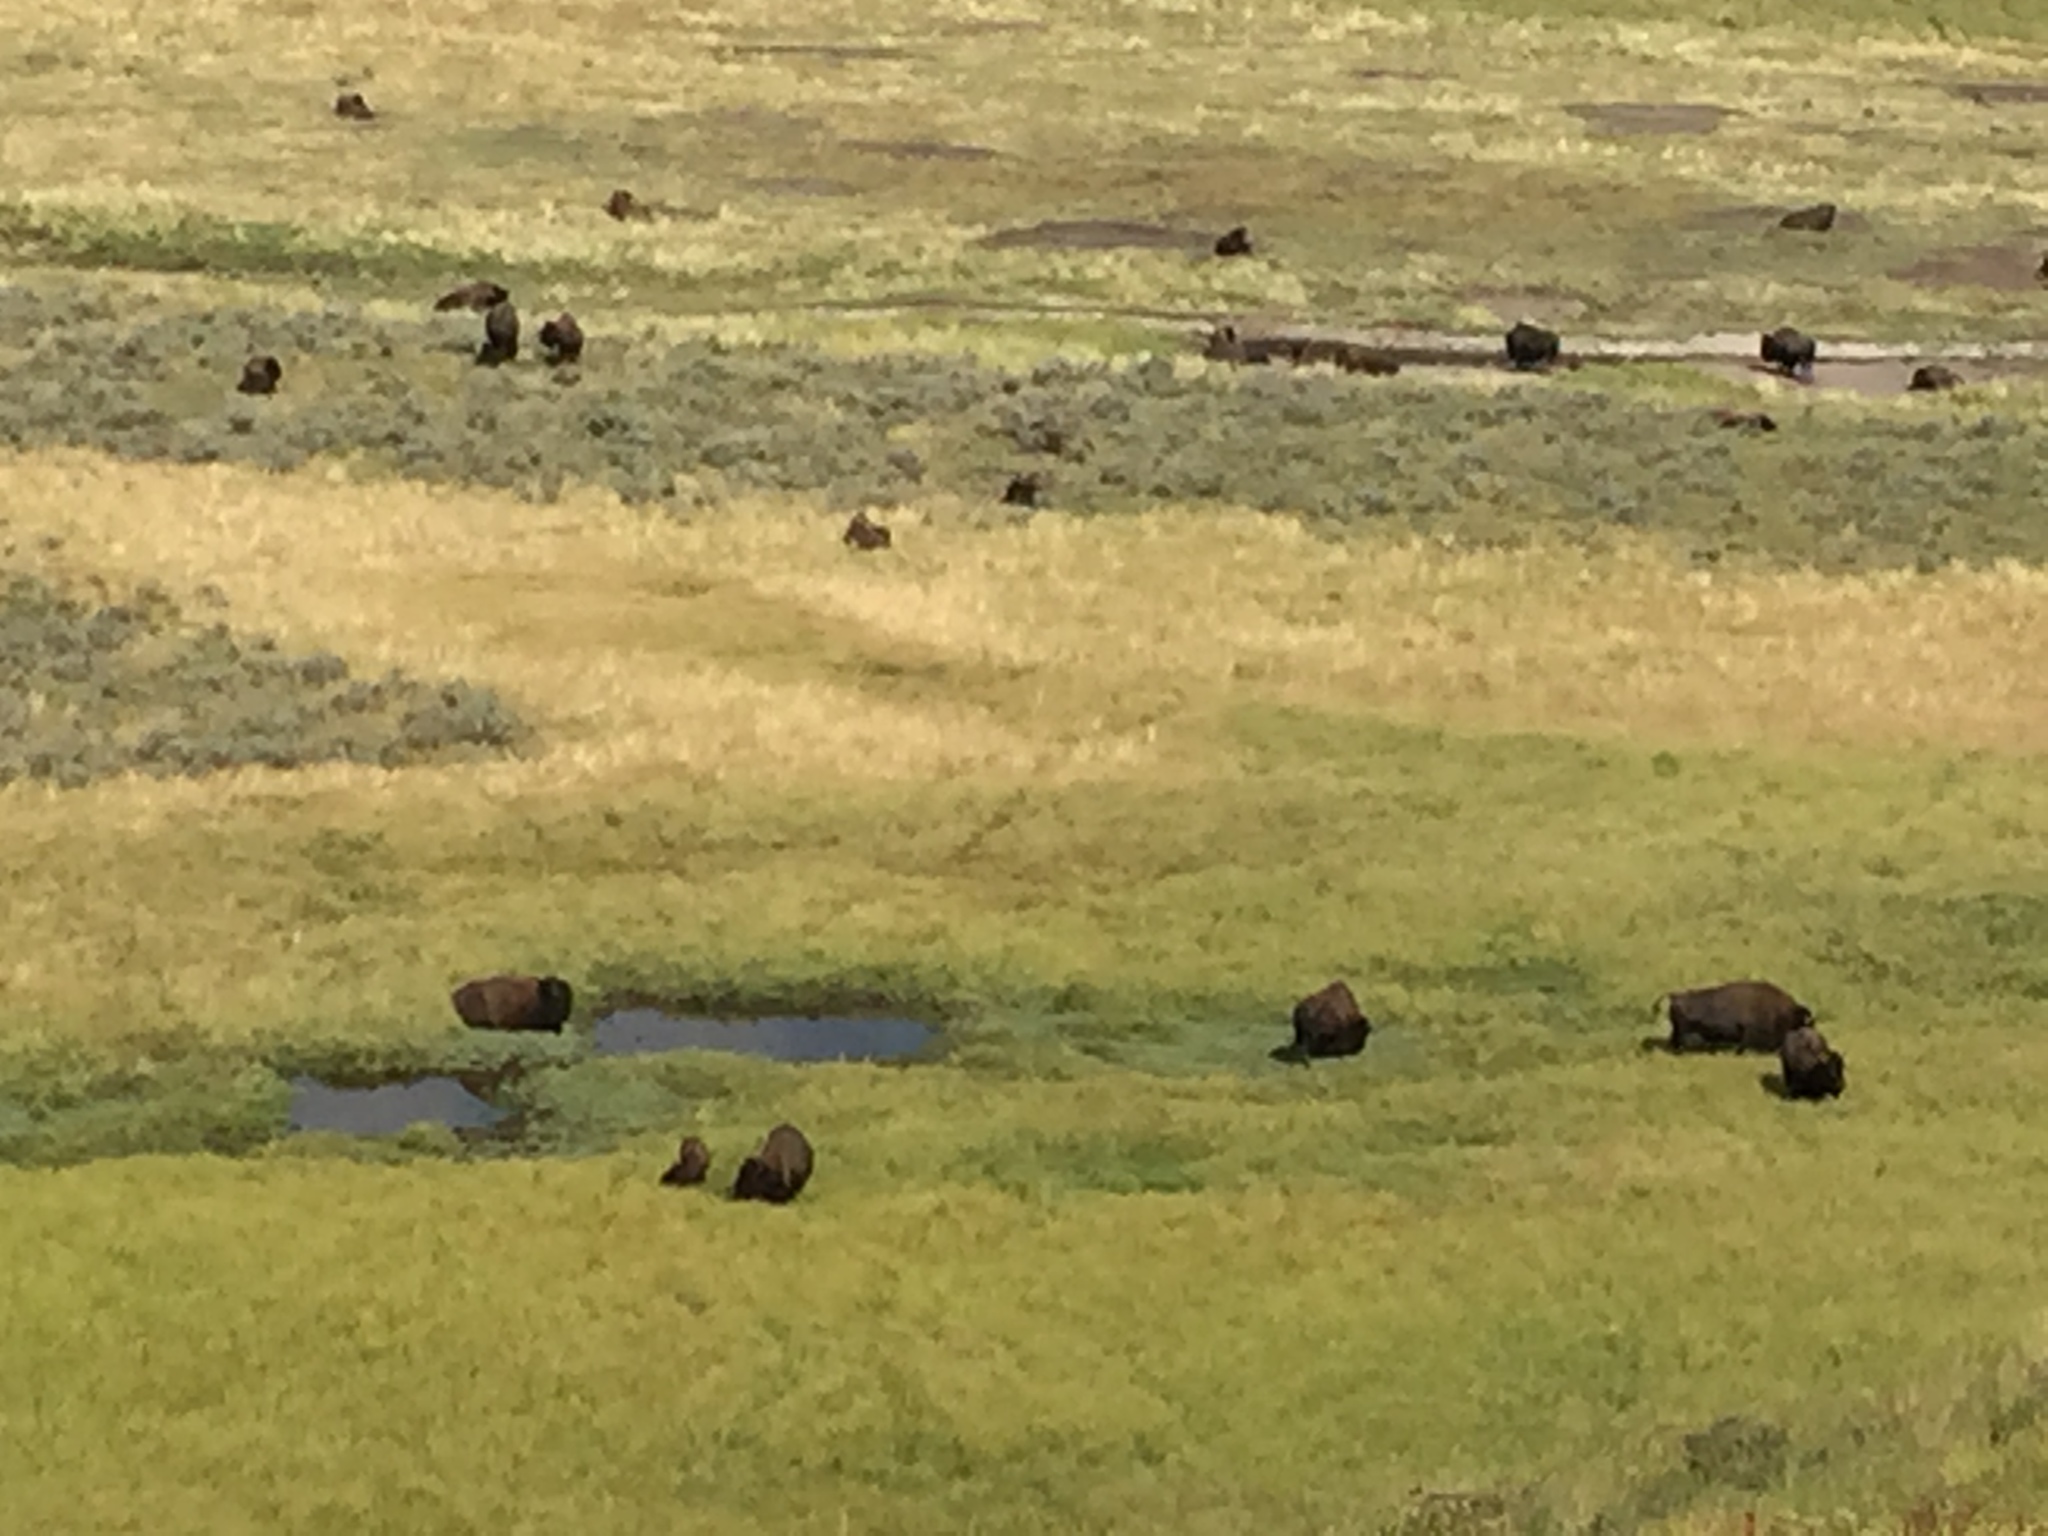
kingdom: Animalia
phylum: Chordata
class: Mammalia
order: Artiodactyla
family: Bovidae
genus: Bison
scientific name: Bison bison
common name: American bison
